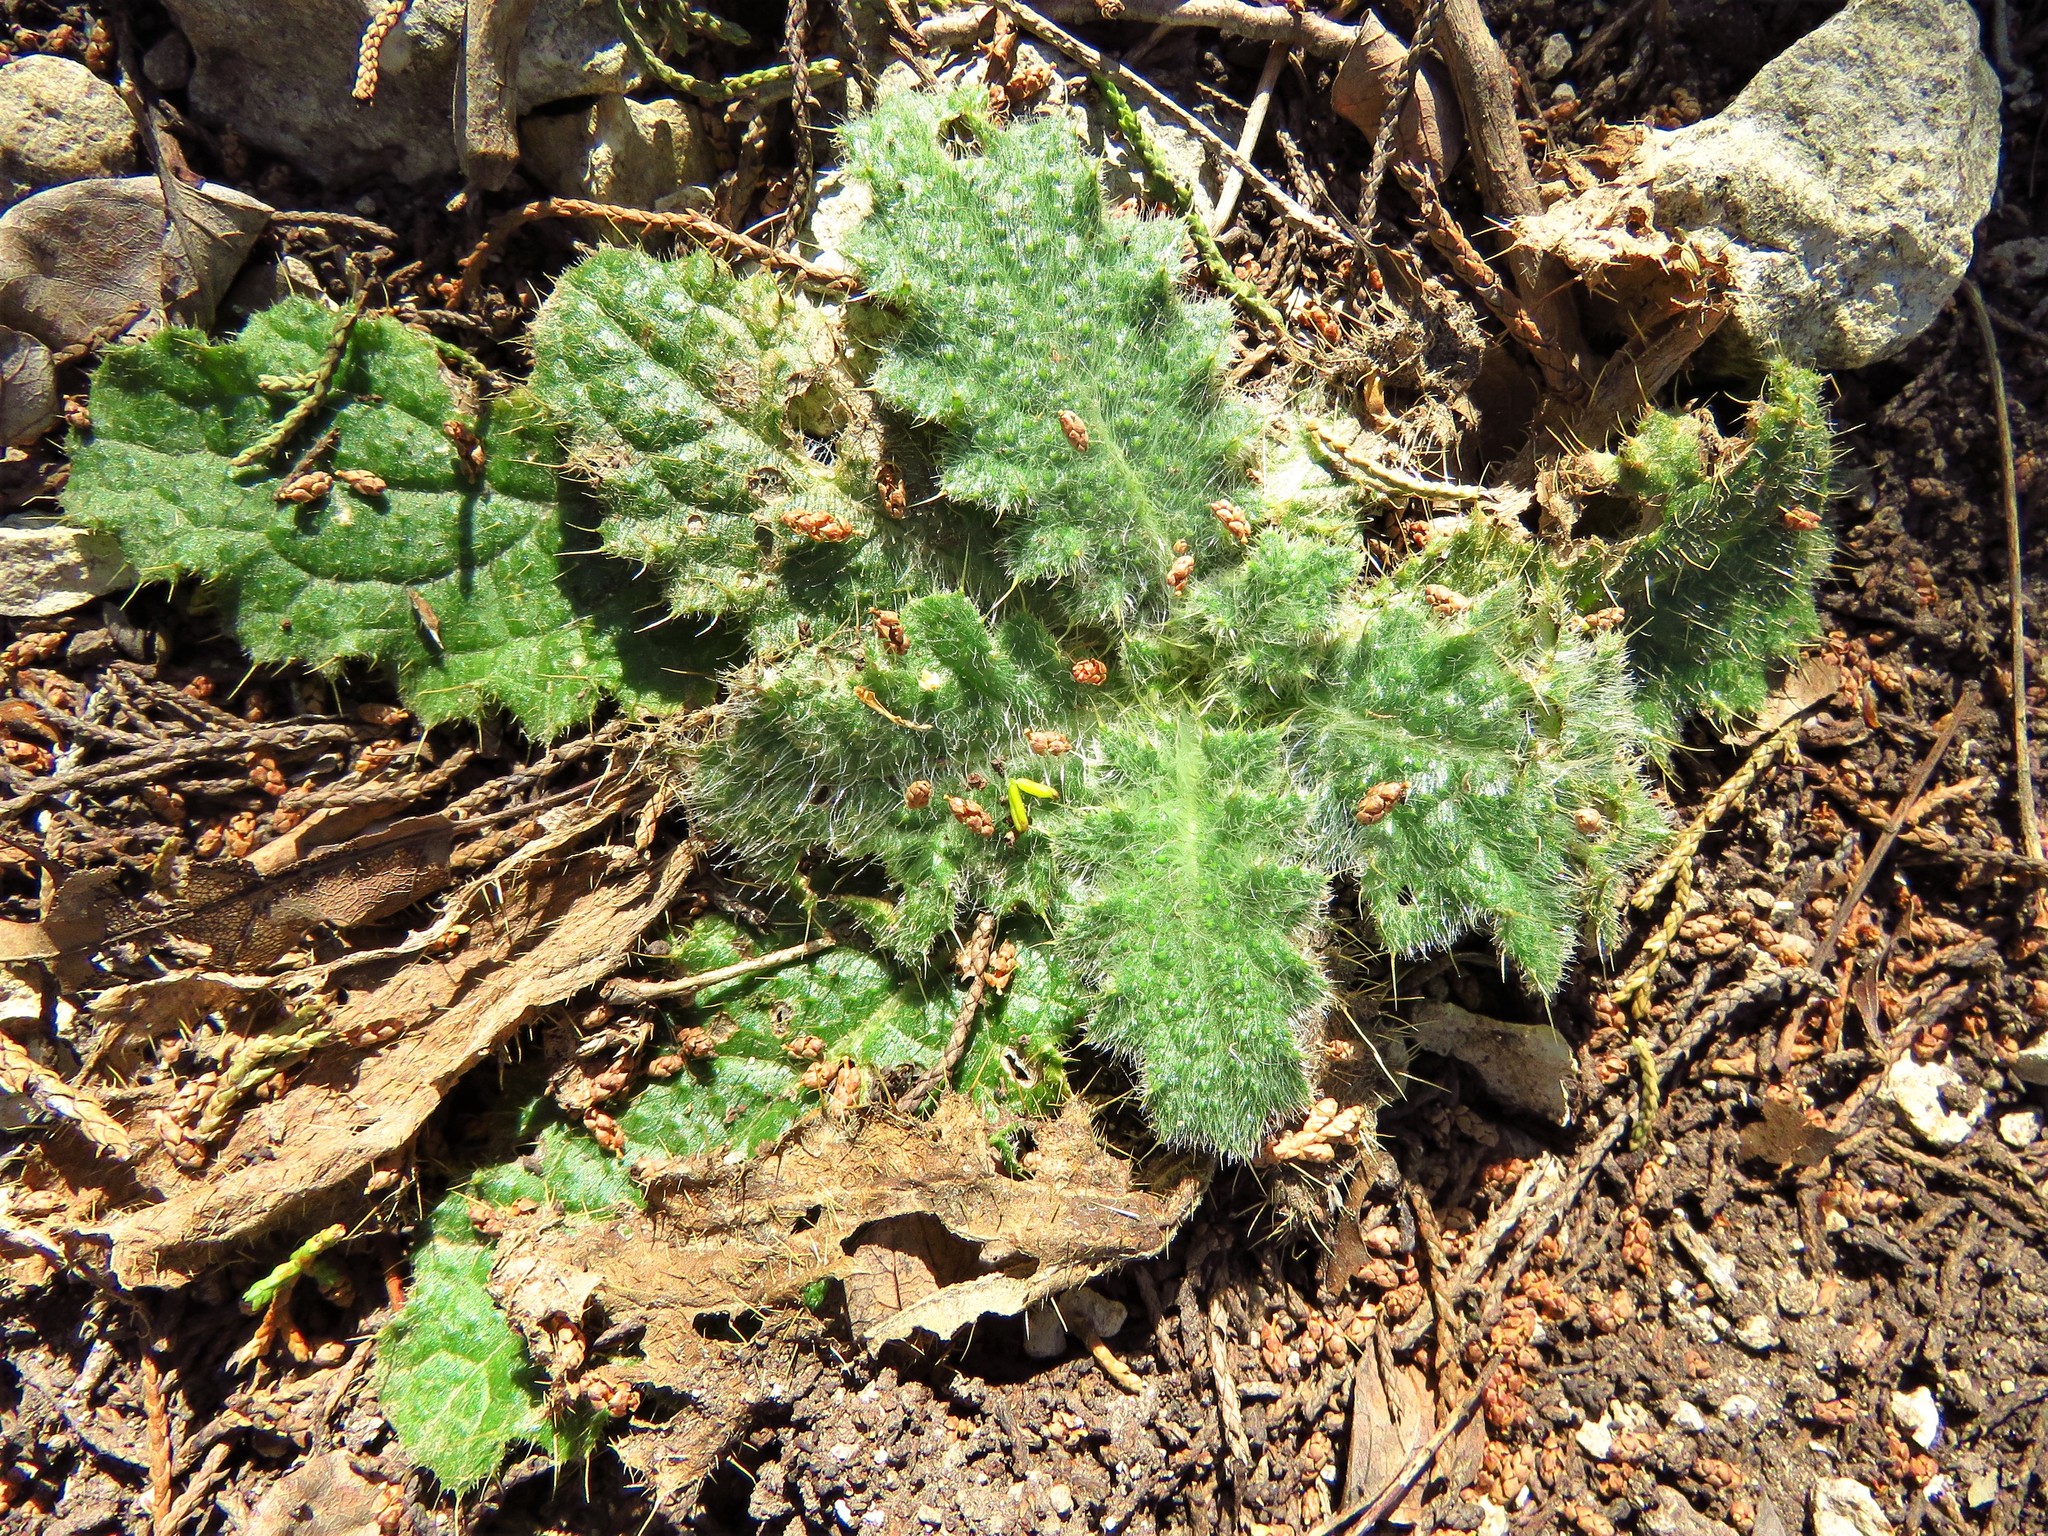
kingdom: Plantae
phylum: Tracheophyta
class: Magnoliopsida
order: Asterales
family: Asteraceae
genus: Cirsium
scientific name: Cirsium vulgare
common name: Bull thistle
